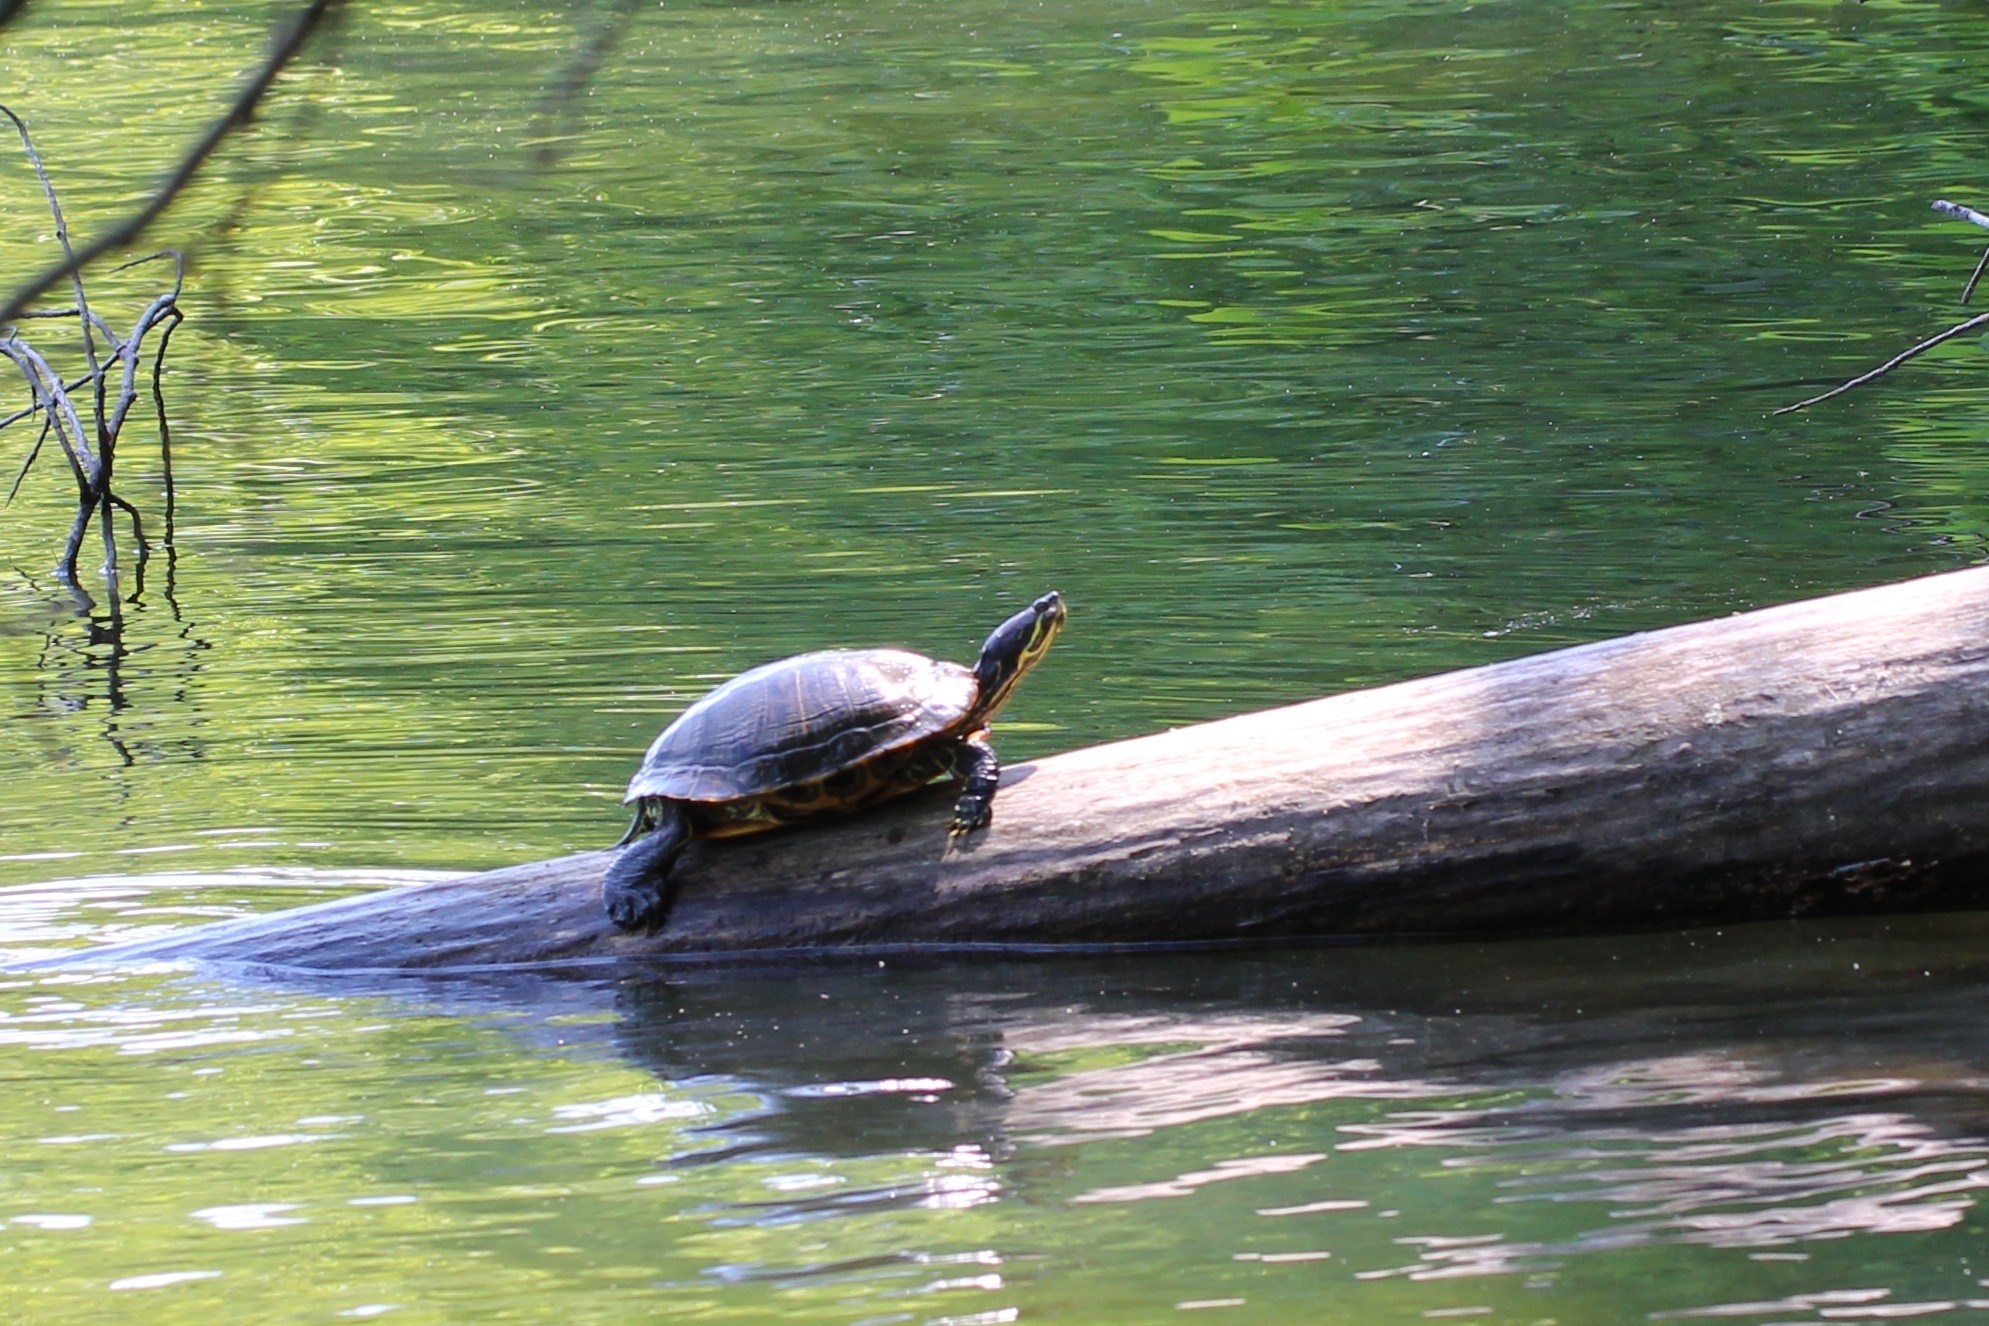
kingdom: Animalia
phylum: Chordata
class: Testudines
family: Emydidae
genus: Trachemys
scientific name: Trachemys scripta
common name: Slider
